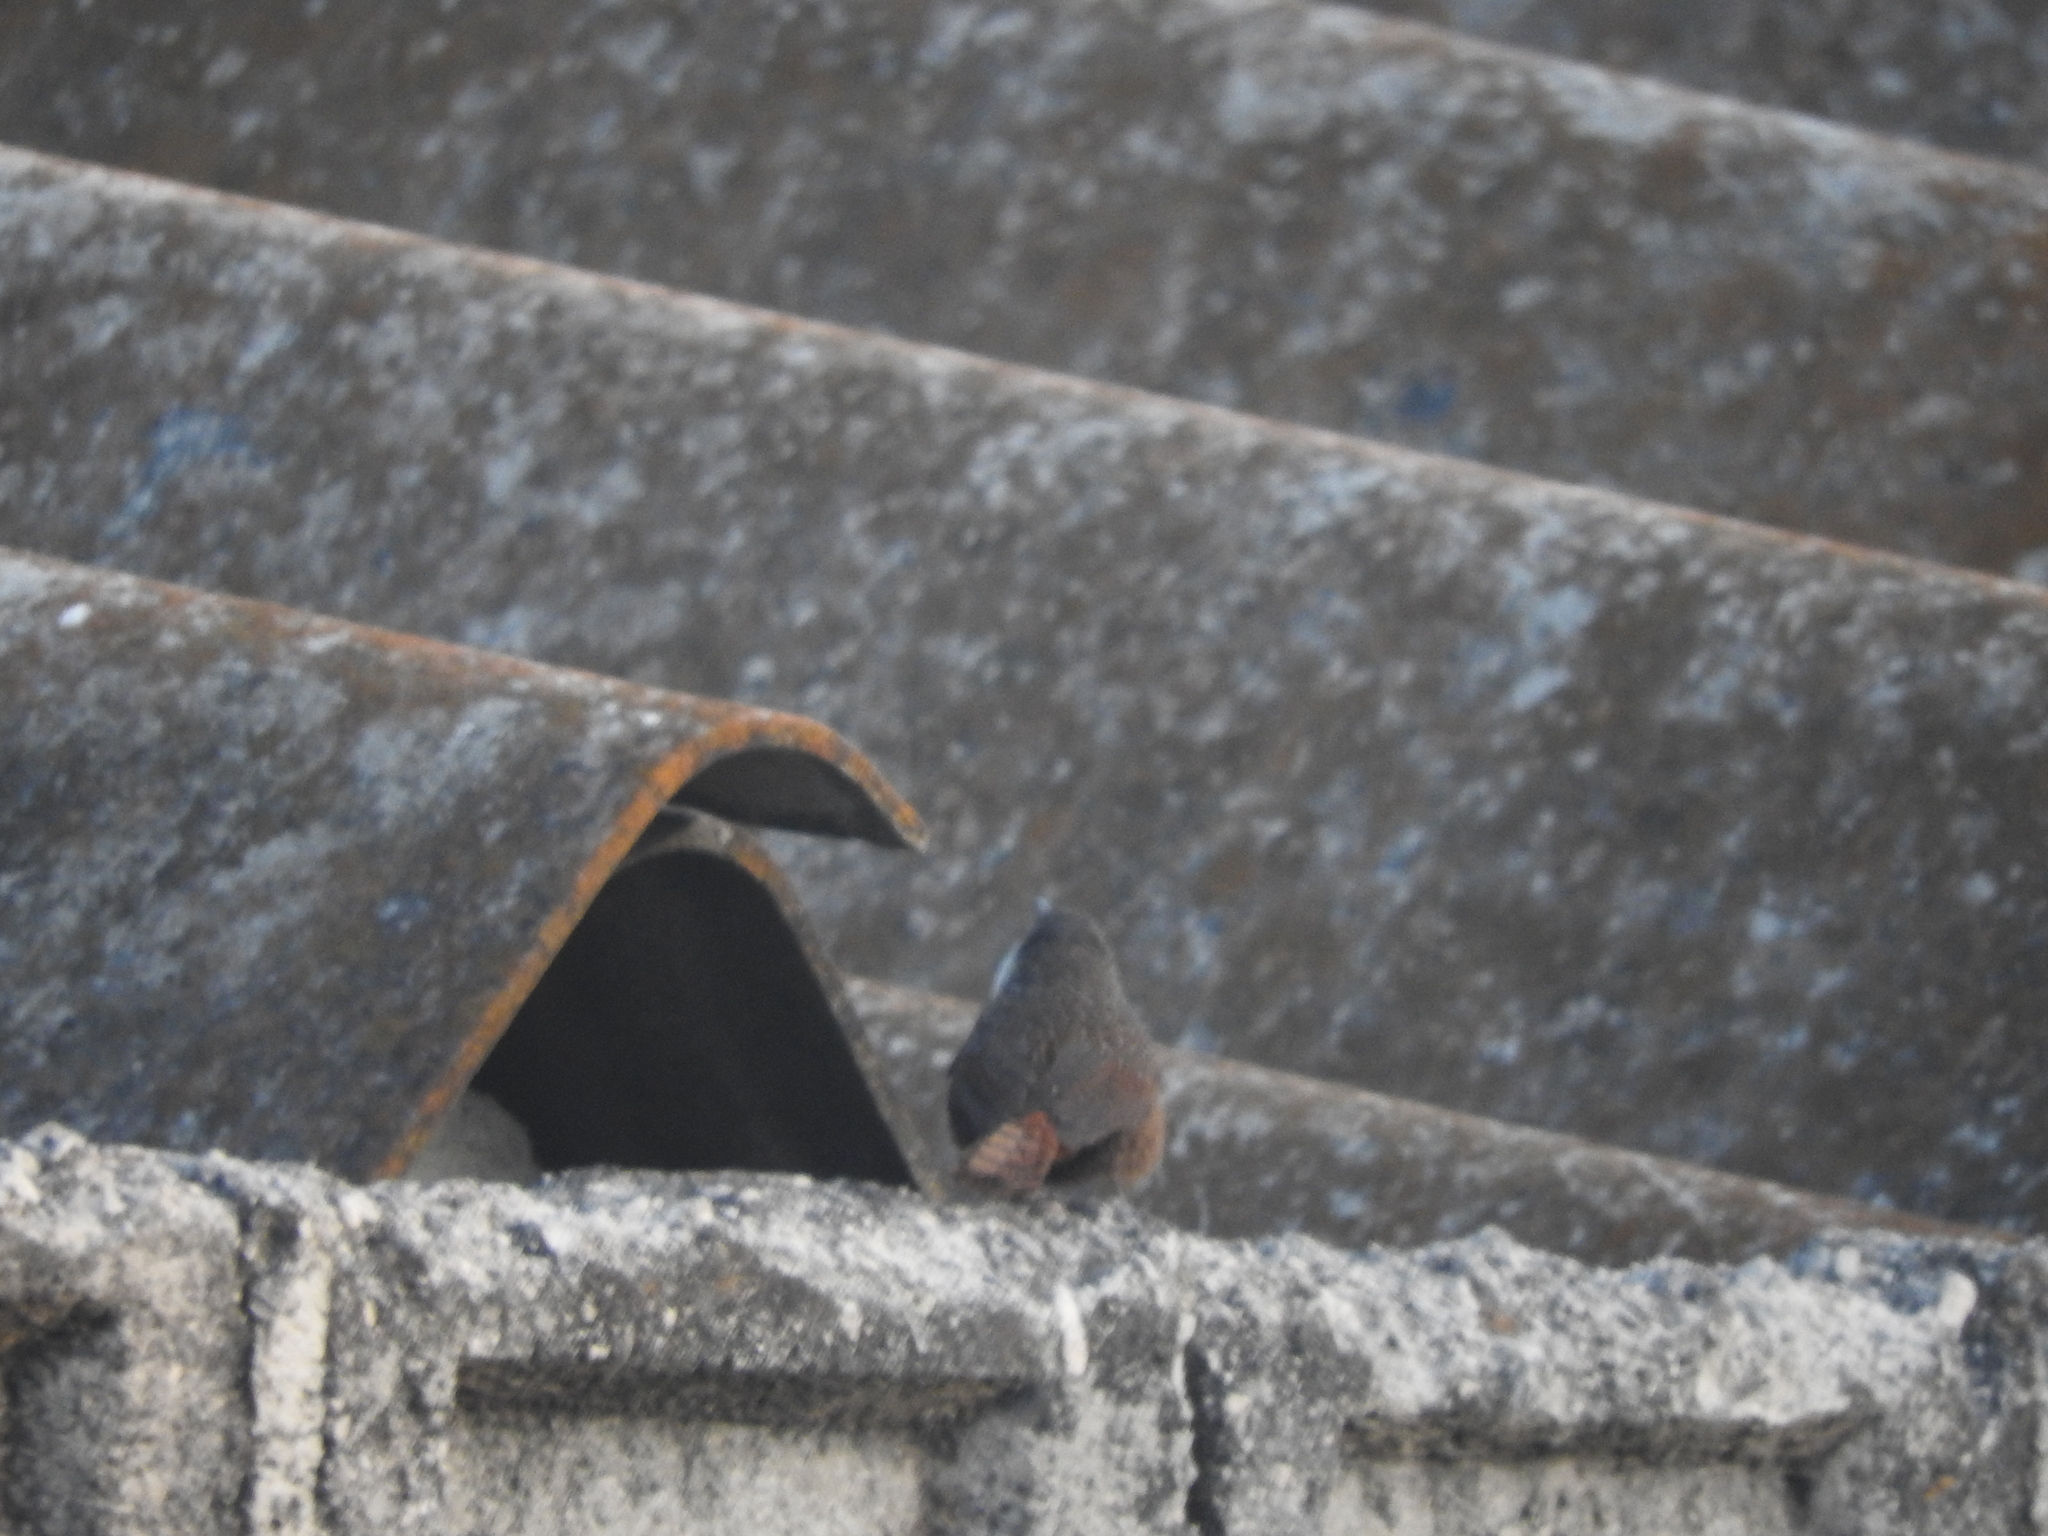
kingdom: Animalia
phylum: Chordata
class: Aves
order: Passeriformes
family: Troglodytidae
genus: Catherpes
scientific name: Catherpes mexicanus
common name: Canyon wren
